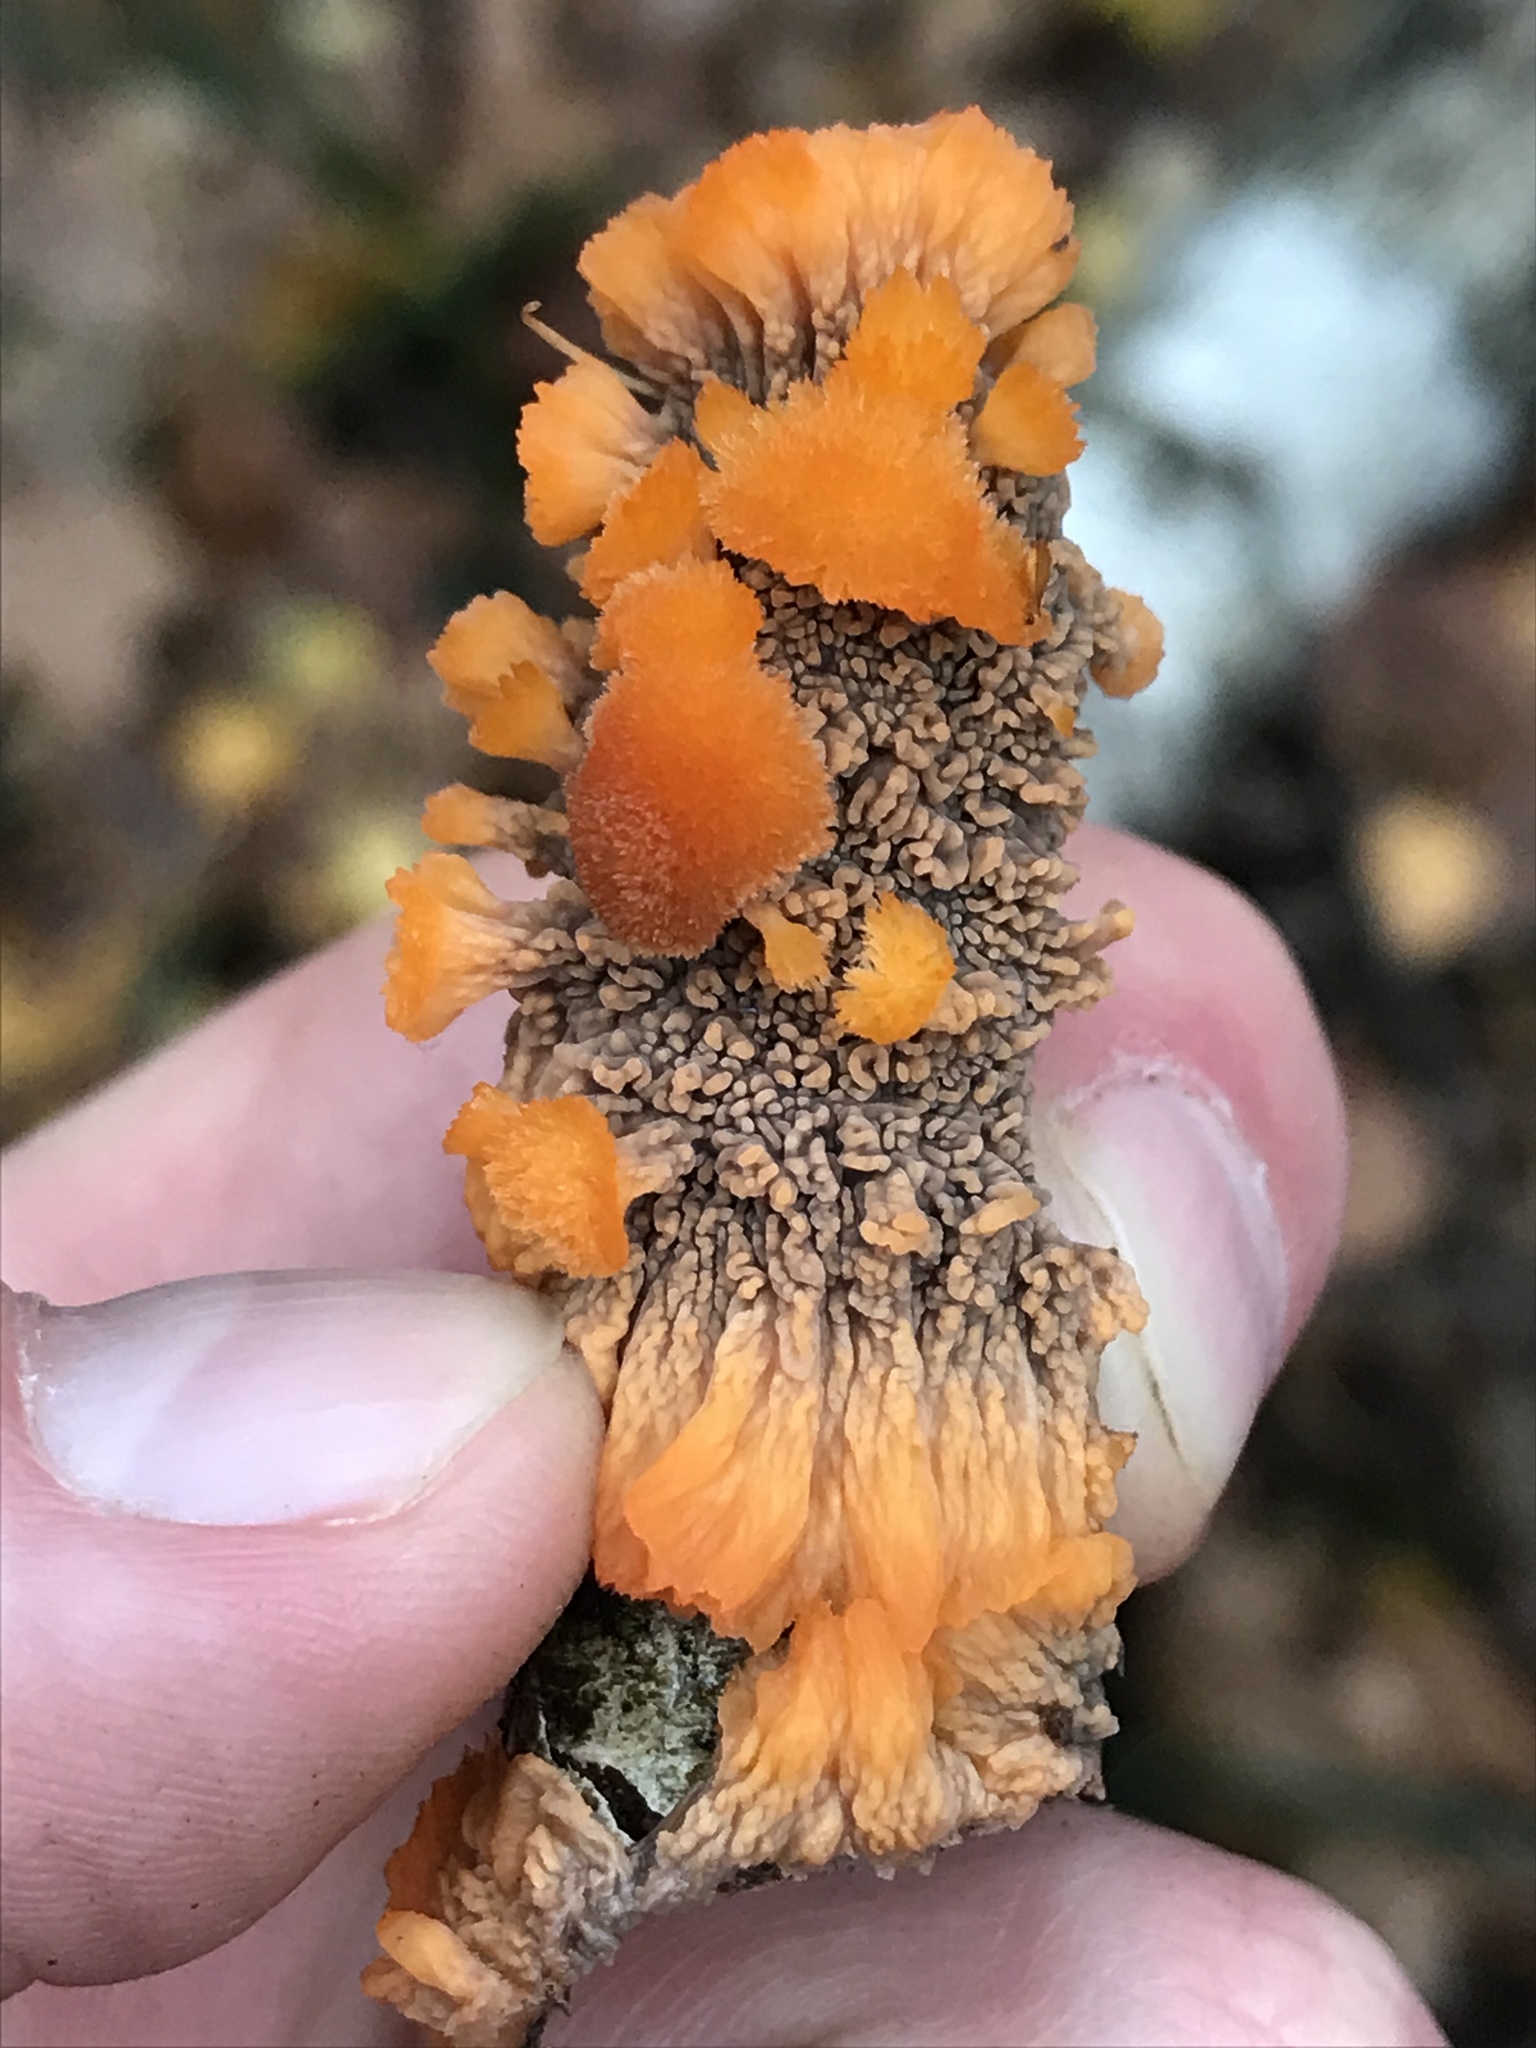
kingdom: Fungi
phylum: Basidiomycota
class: Agaricomycetes
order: Polyporales
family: Meruliaceae
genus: Phlebia
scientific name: Phlebia radiata
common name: Wrinkled crust
